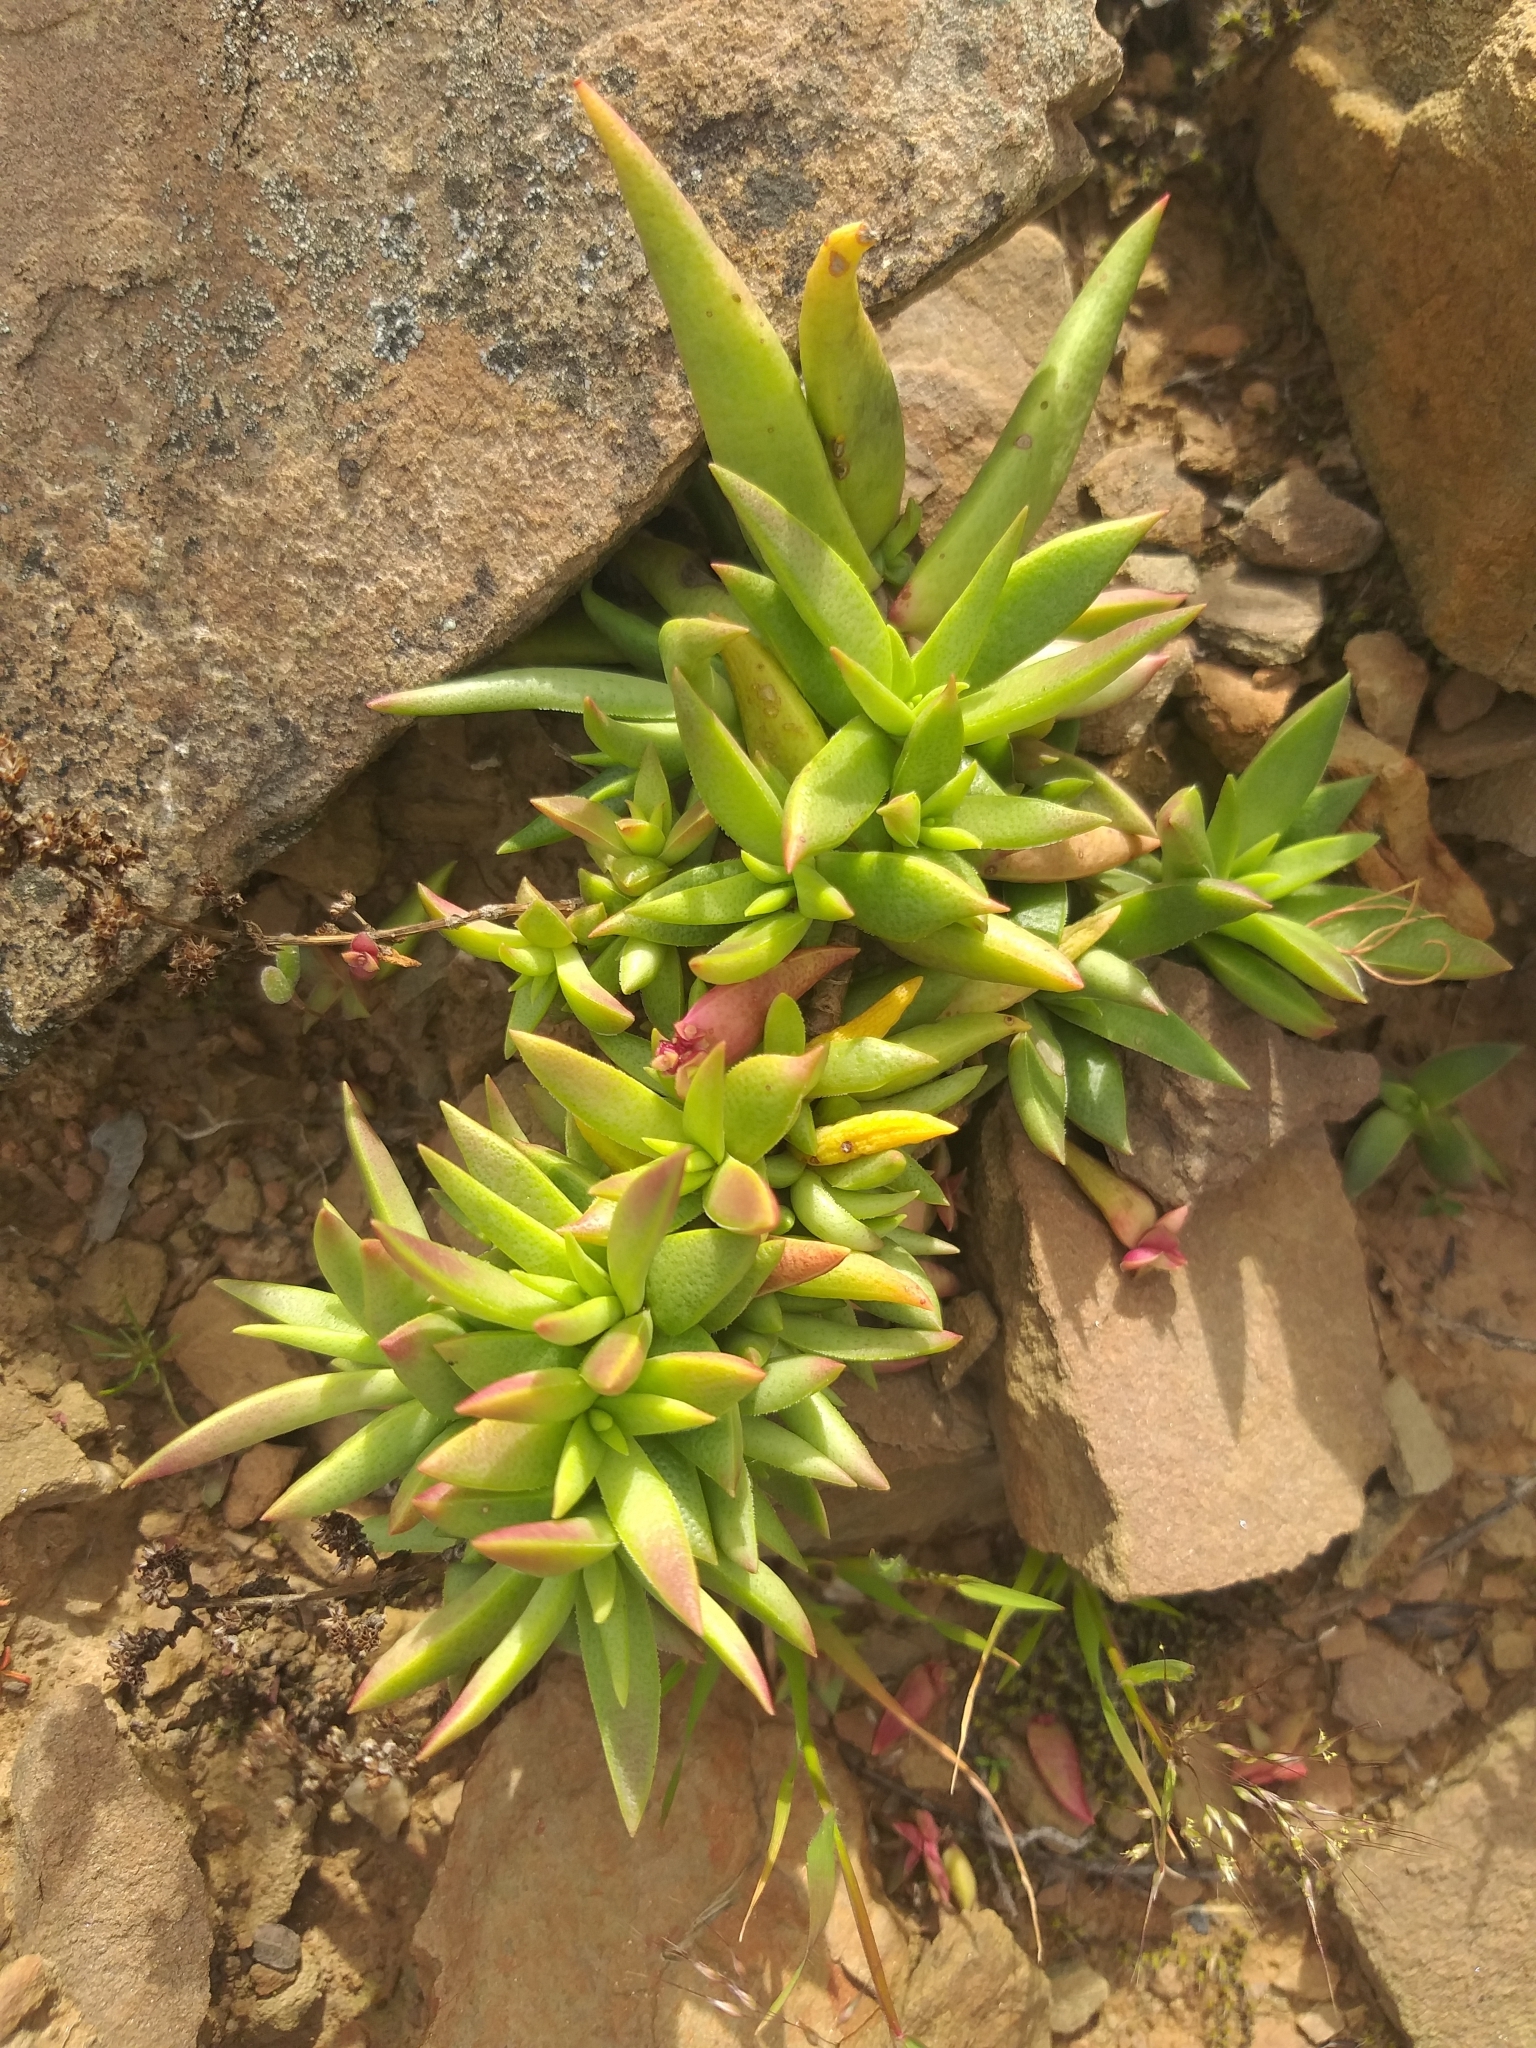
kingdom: Plantae
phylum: Tracheophyta
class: Magnoliopsida
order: Saxifragales
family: Crassulaceae
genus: Crassula
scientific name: Crassula capitella
